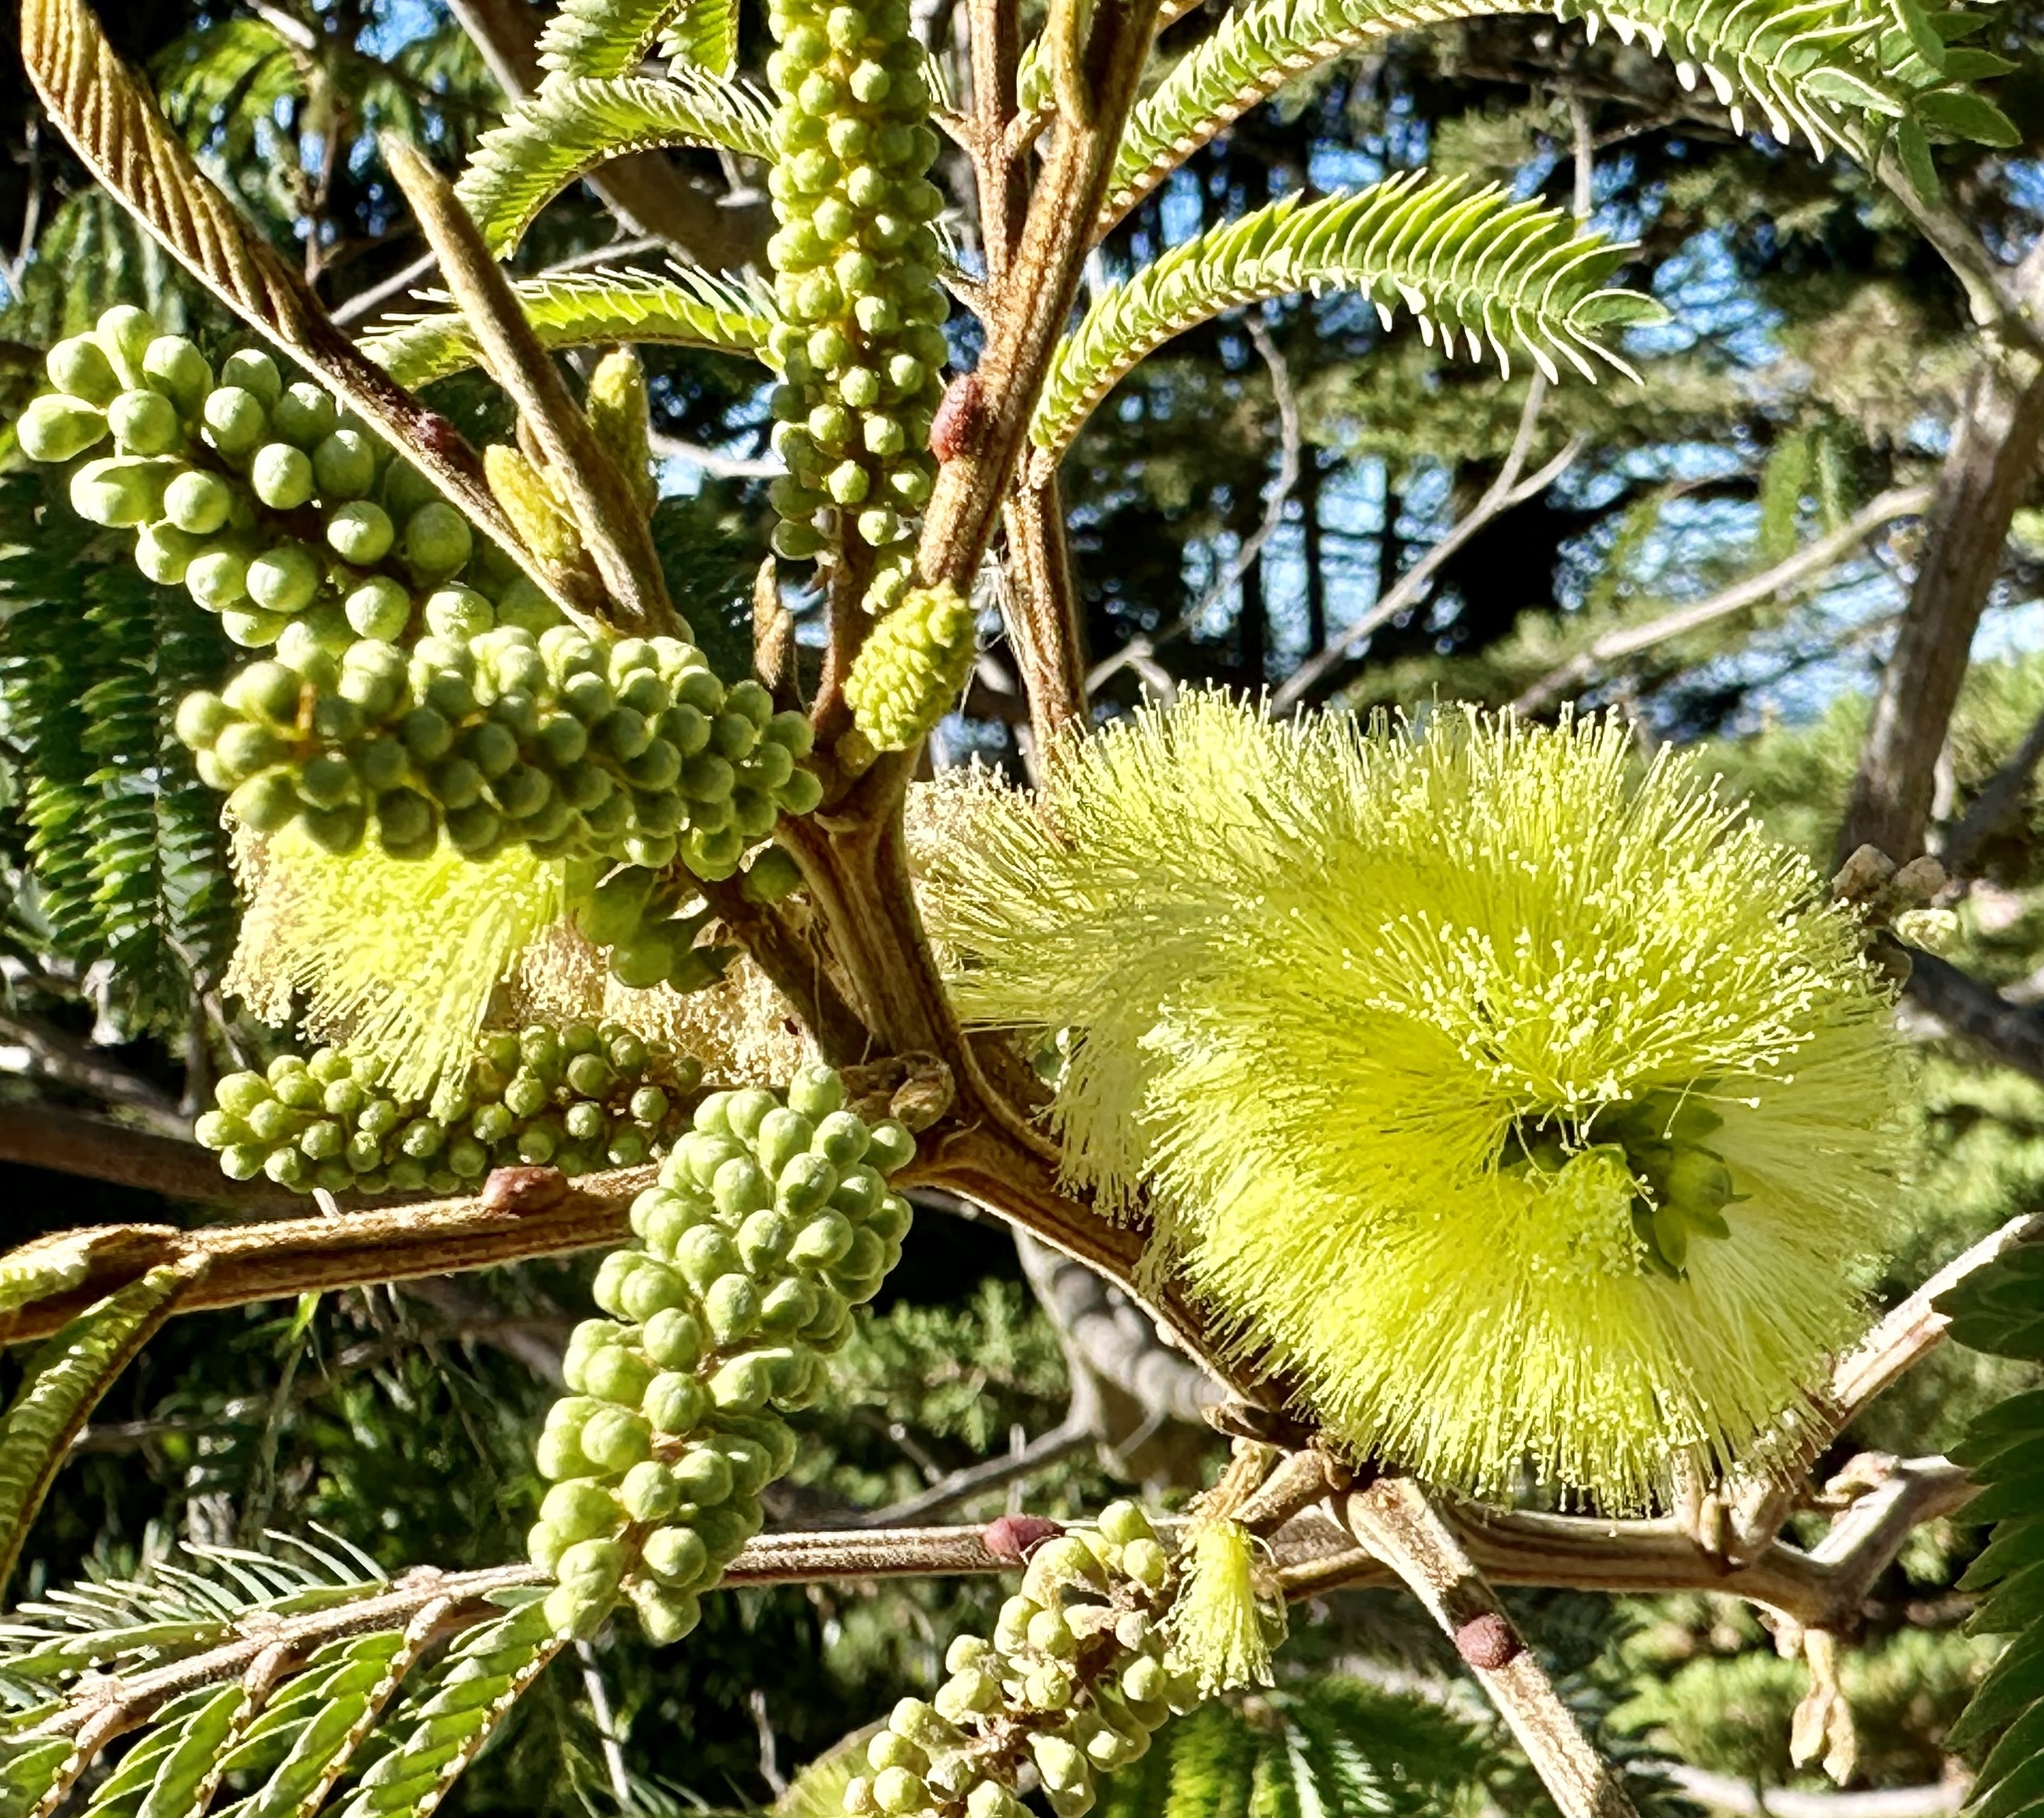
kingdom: Plantae
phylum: Tracheophyta
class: Magnoliopsida
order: Fabales
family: Fabaceae
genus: Paraserianthes
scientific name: Paraserianthes lophantha
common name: Plume albizia
